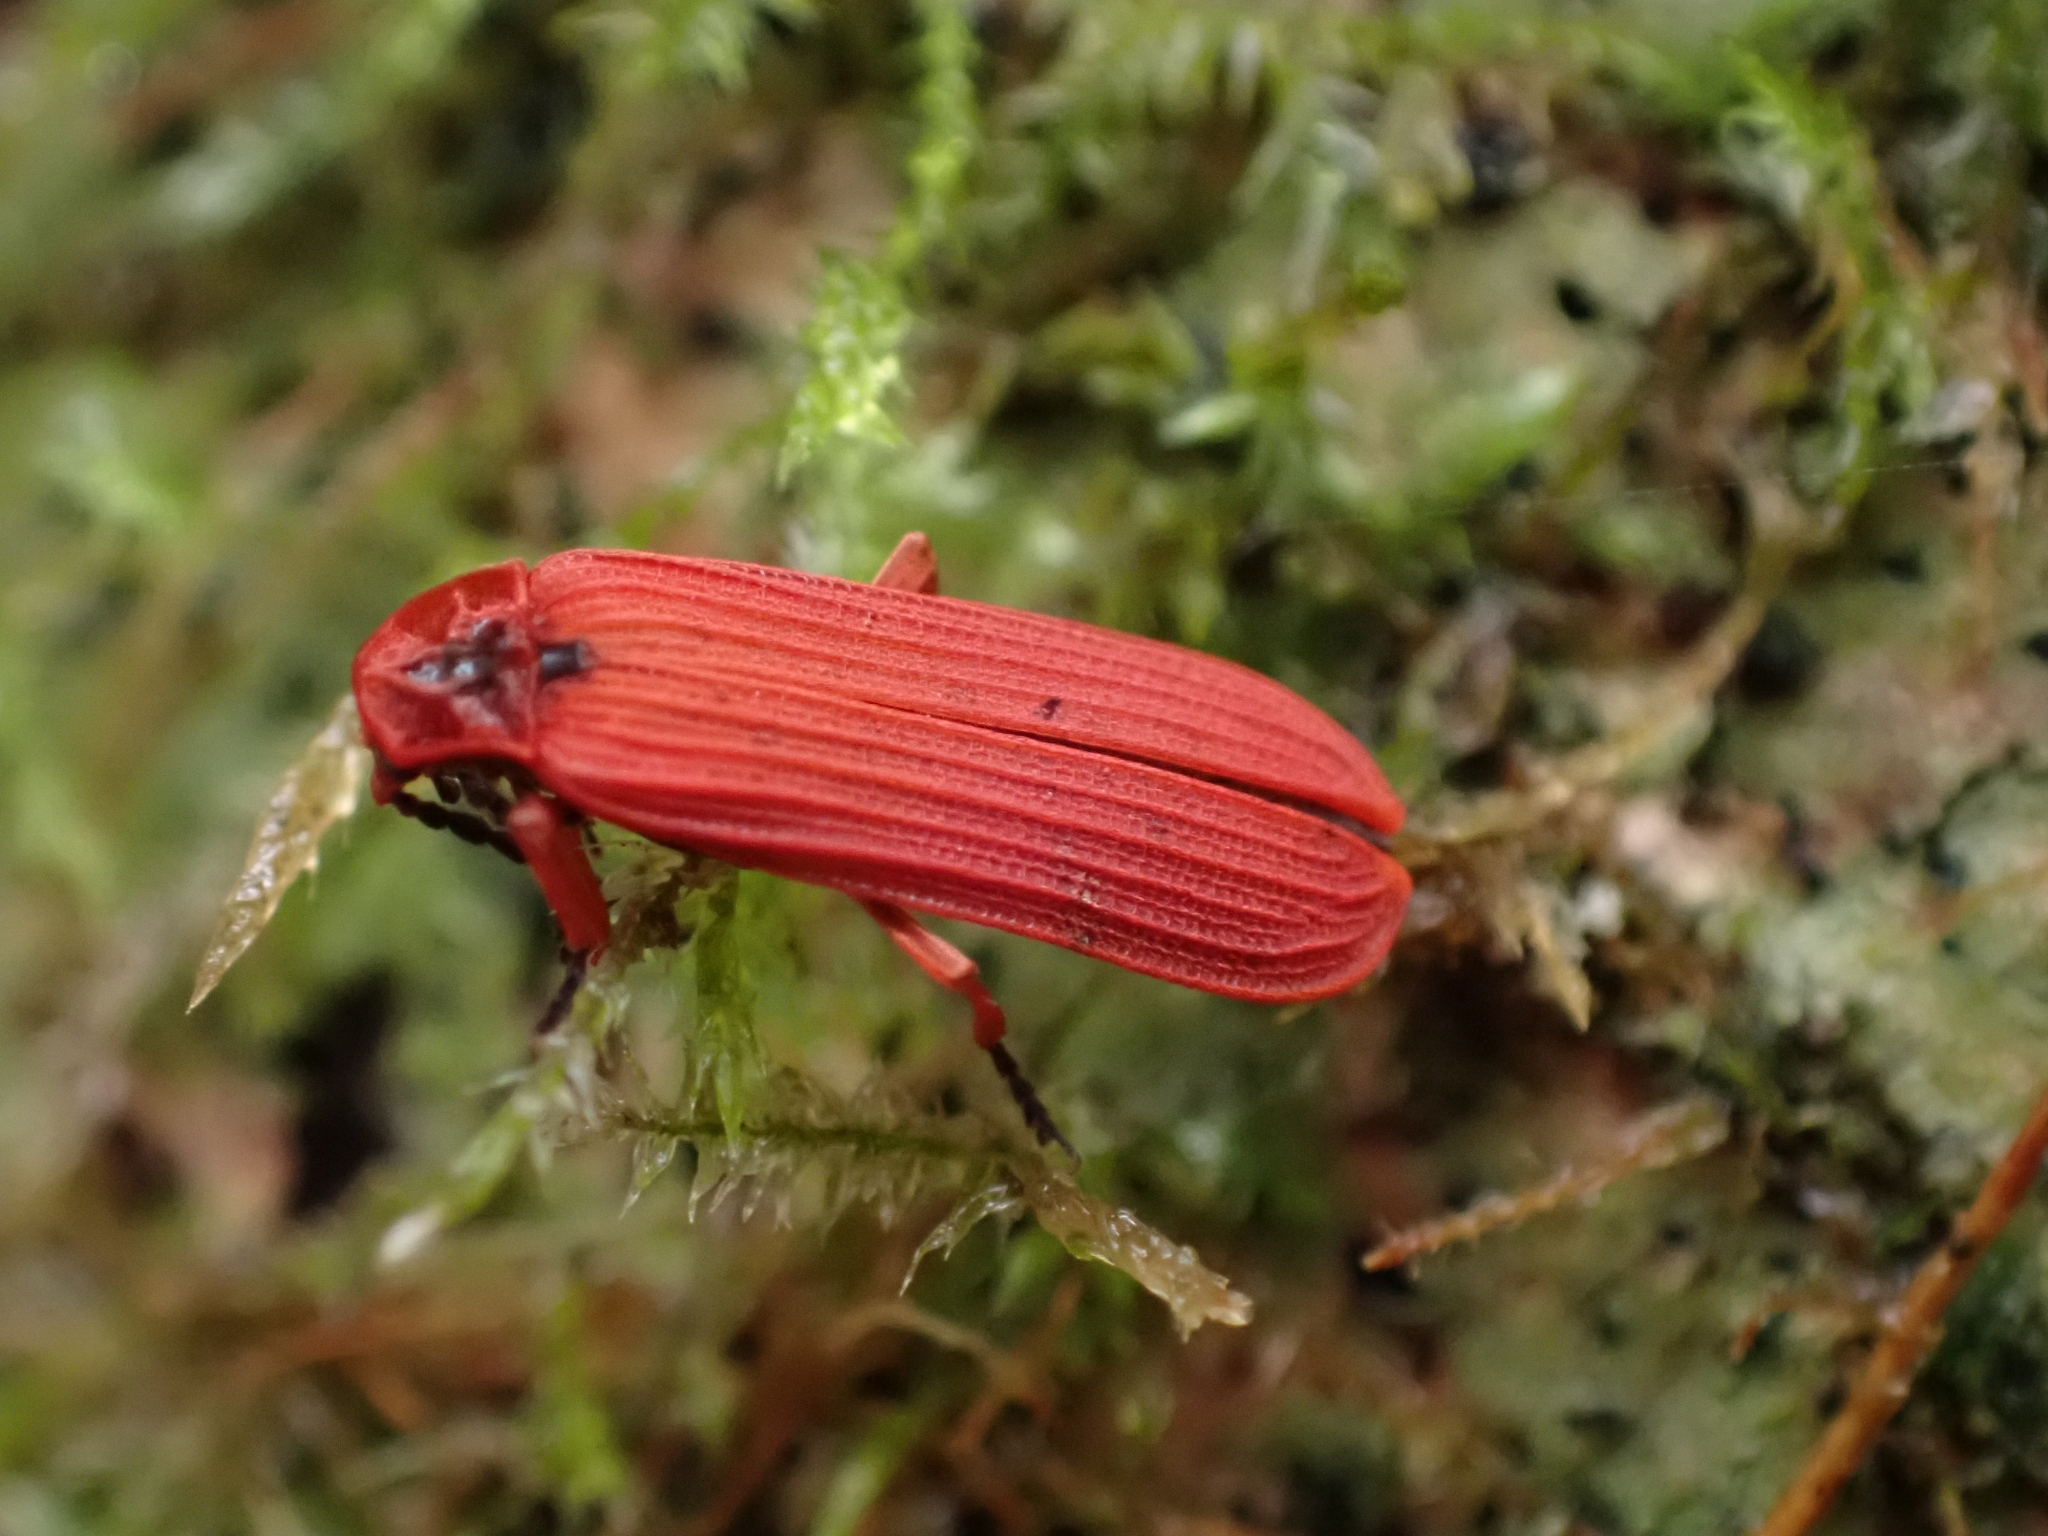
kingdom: Animalia
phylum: Arthropoda
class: Insecta
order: Coleoptera
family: Lycidae
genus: Dictyoptera
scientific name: Dictyoptera simplicipes
